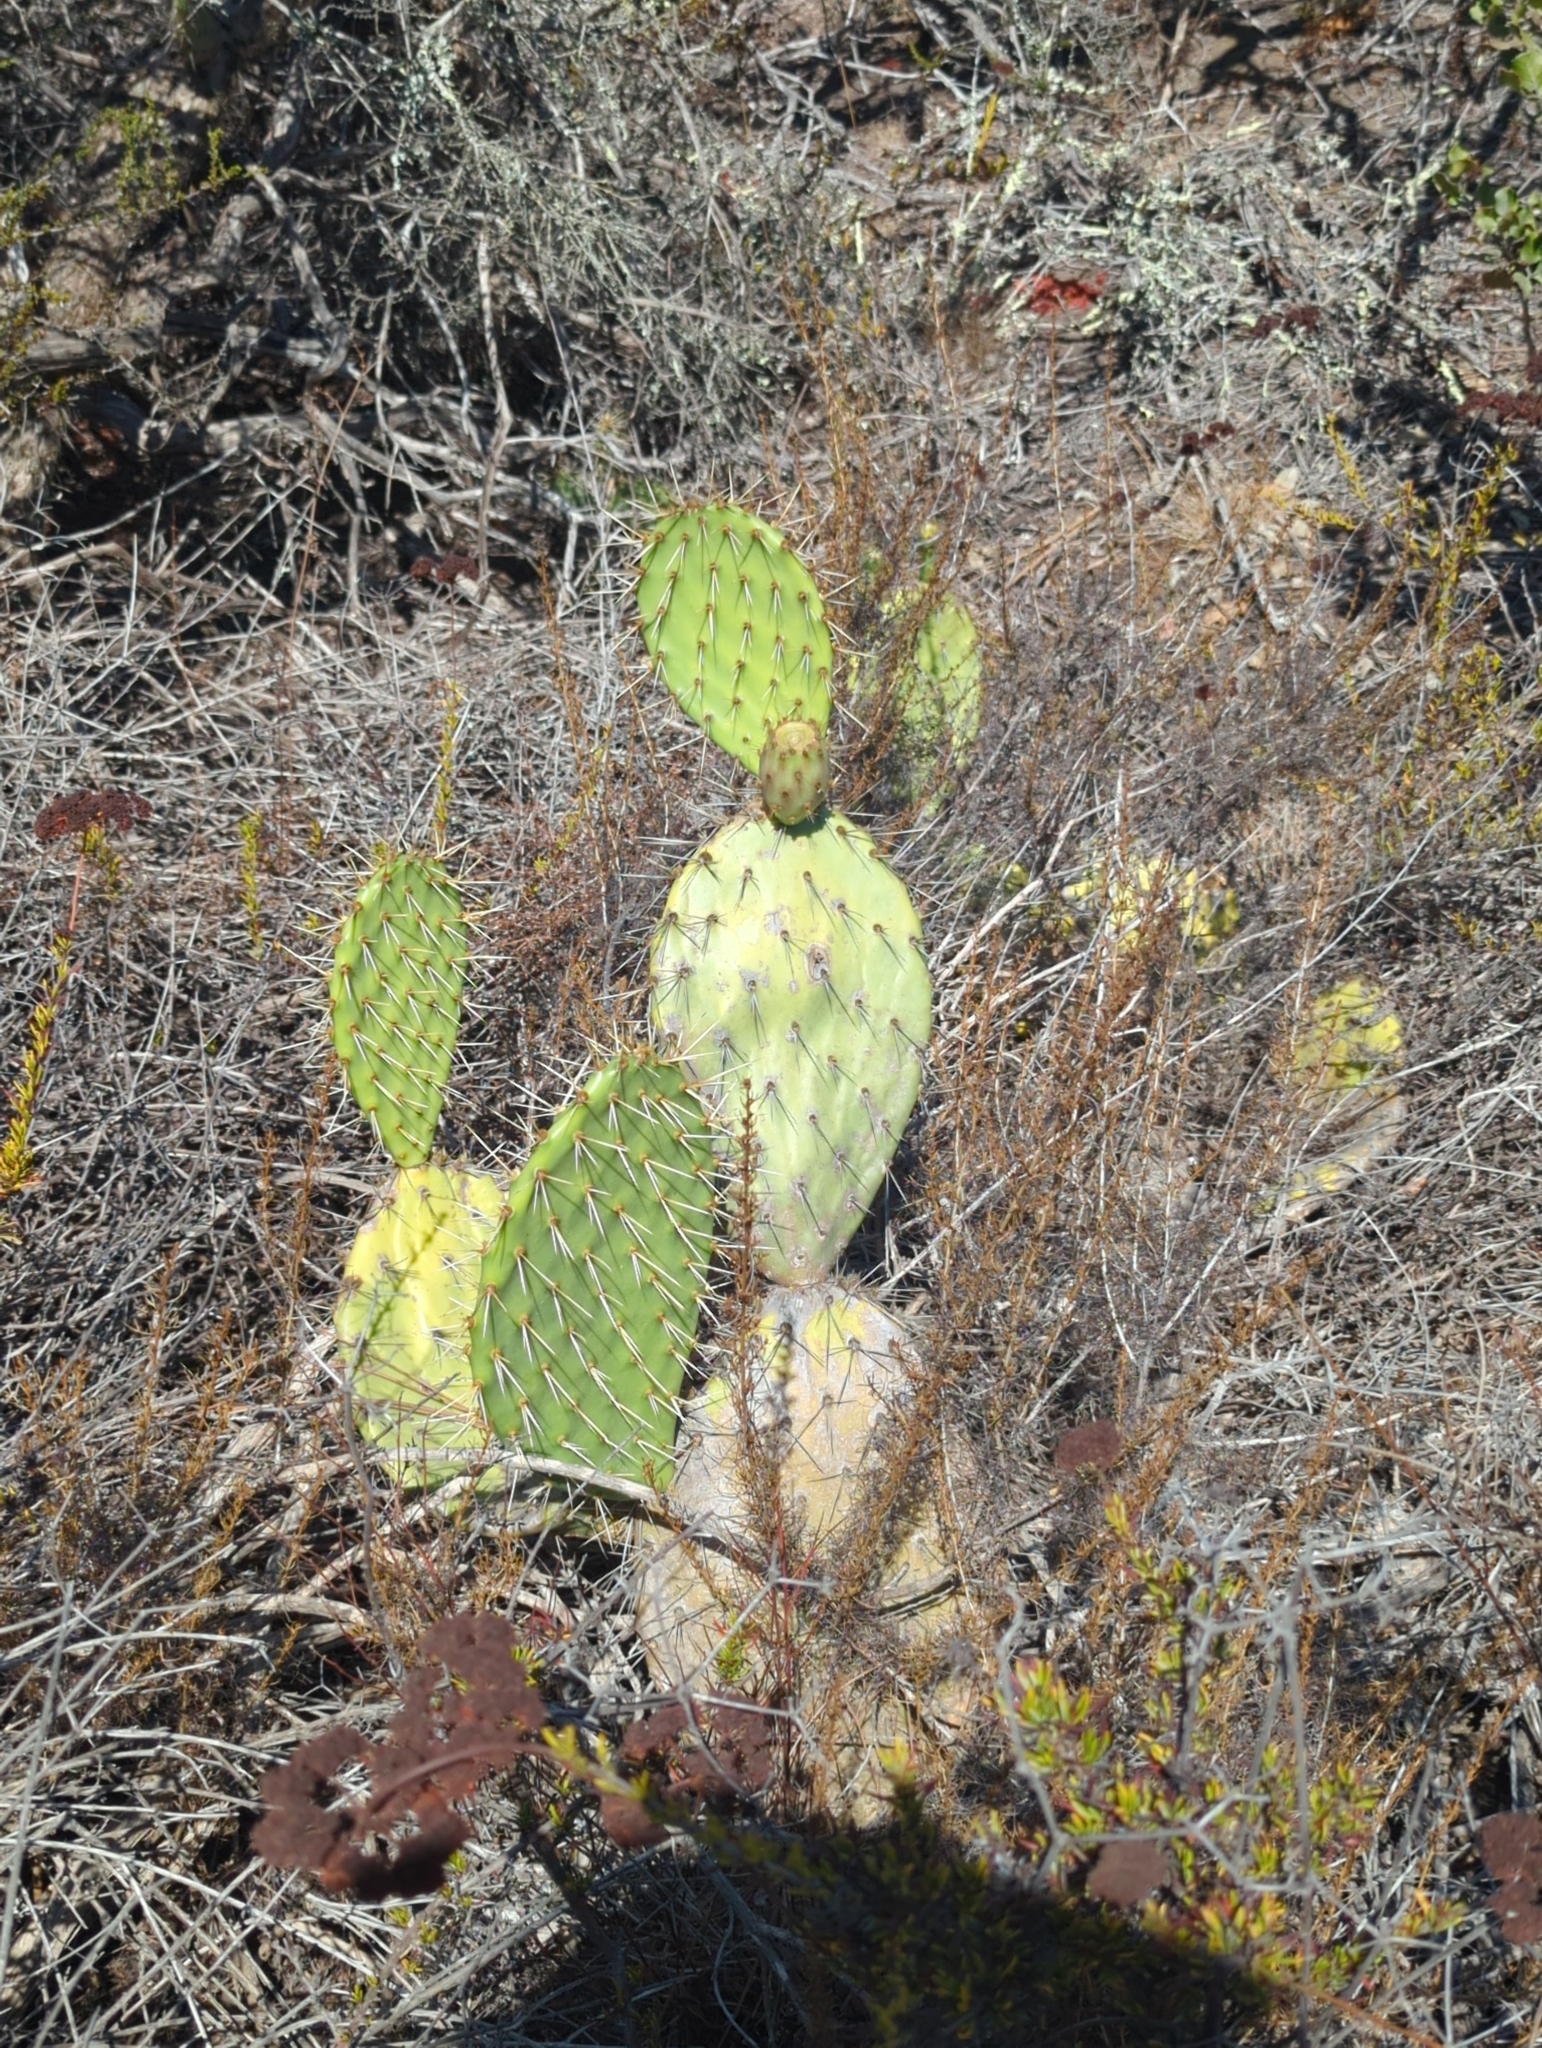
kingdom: Plantae
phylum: Tracheophyta
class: Magnoliopsida
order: Caryophyllales
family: Cactaceae
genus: Opuntia
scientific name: Opuntia littoralis
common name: Coastal prickly-pear
